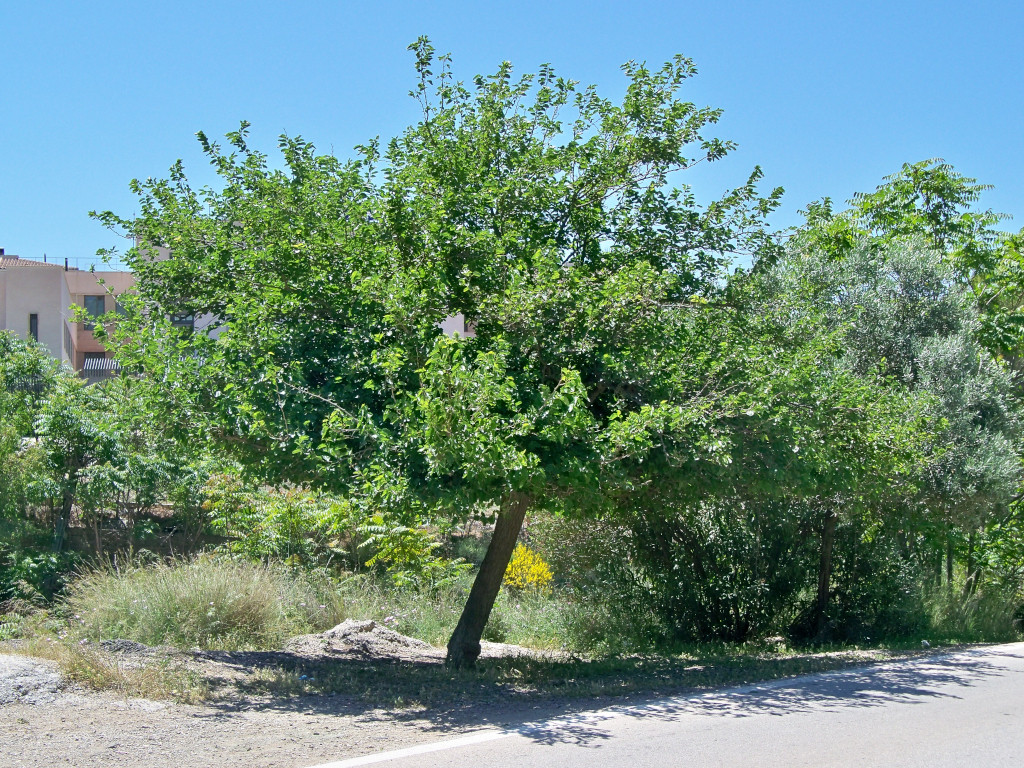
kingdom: Plantae
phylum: Tracheophyta
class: Magnoliopsida
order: Rosales
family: Moraceae
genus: Morus
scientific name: Morus alba
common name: White mulberry
